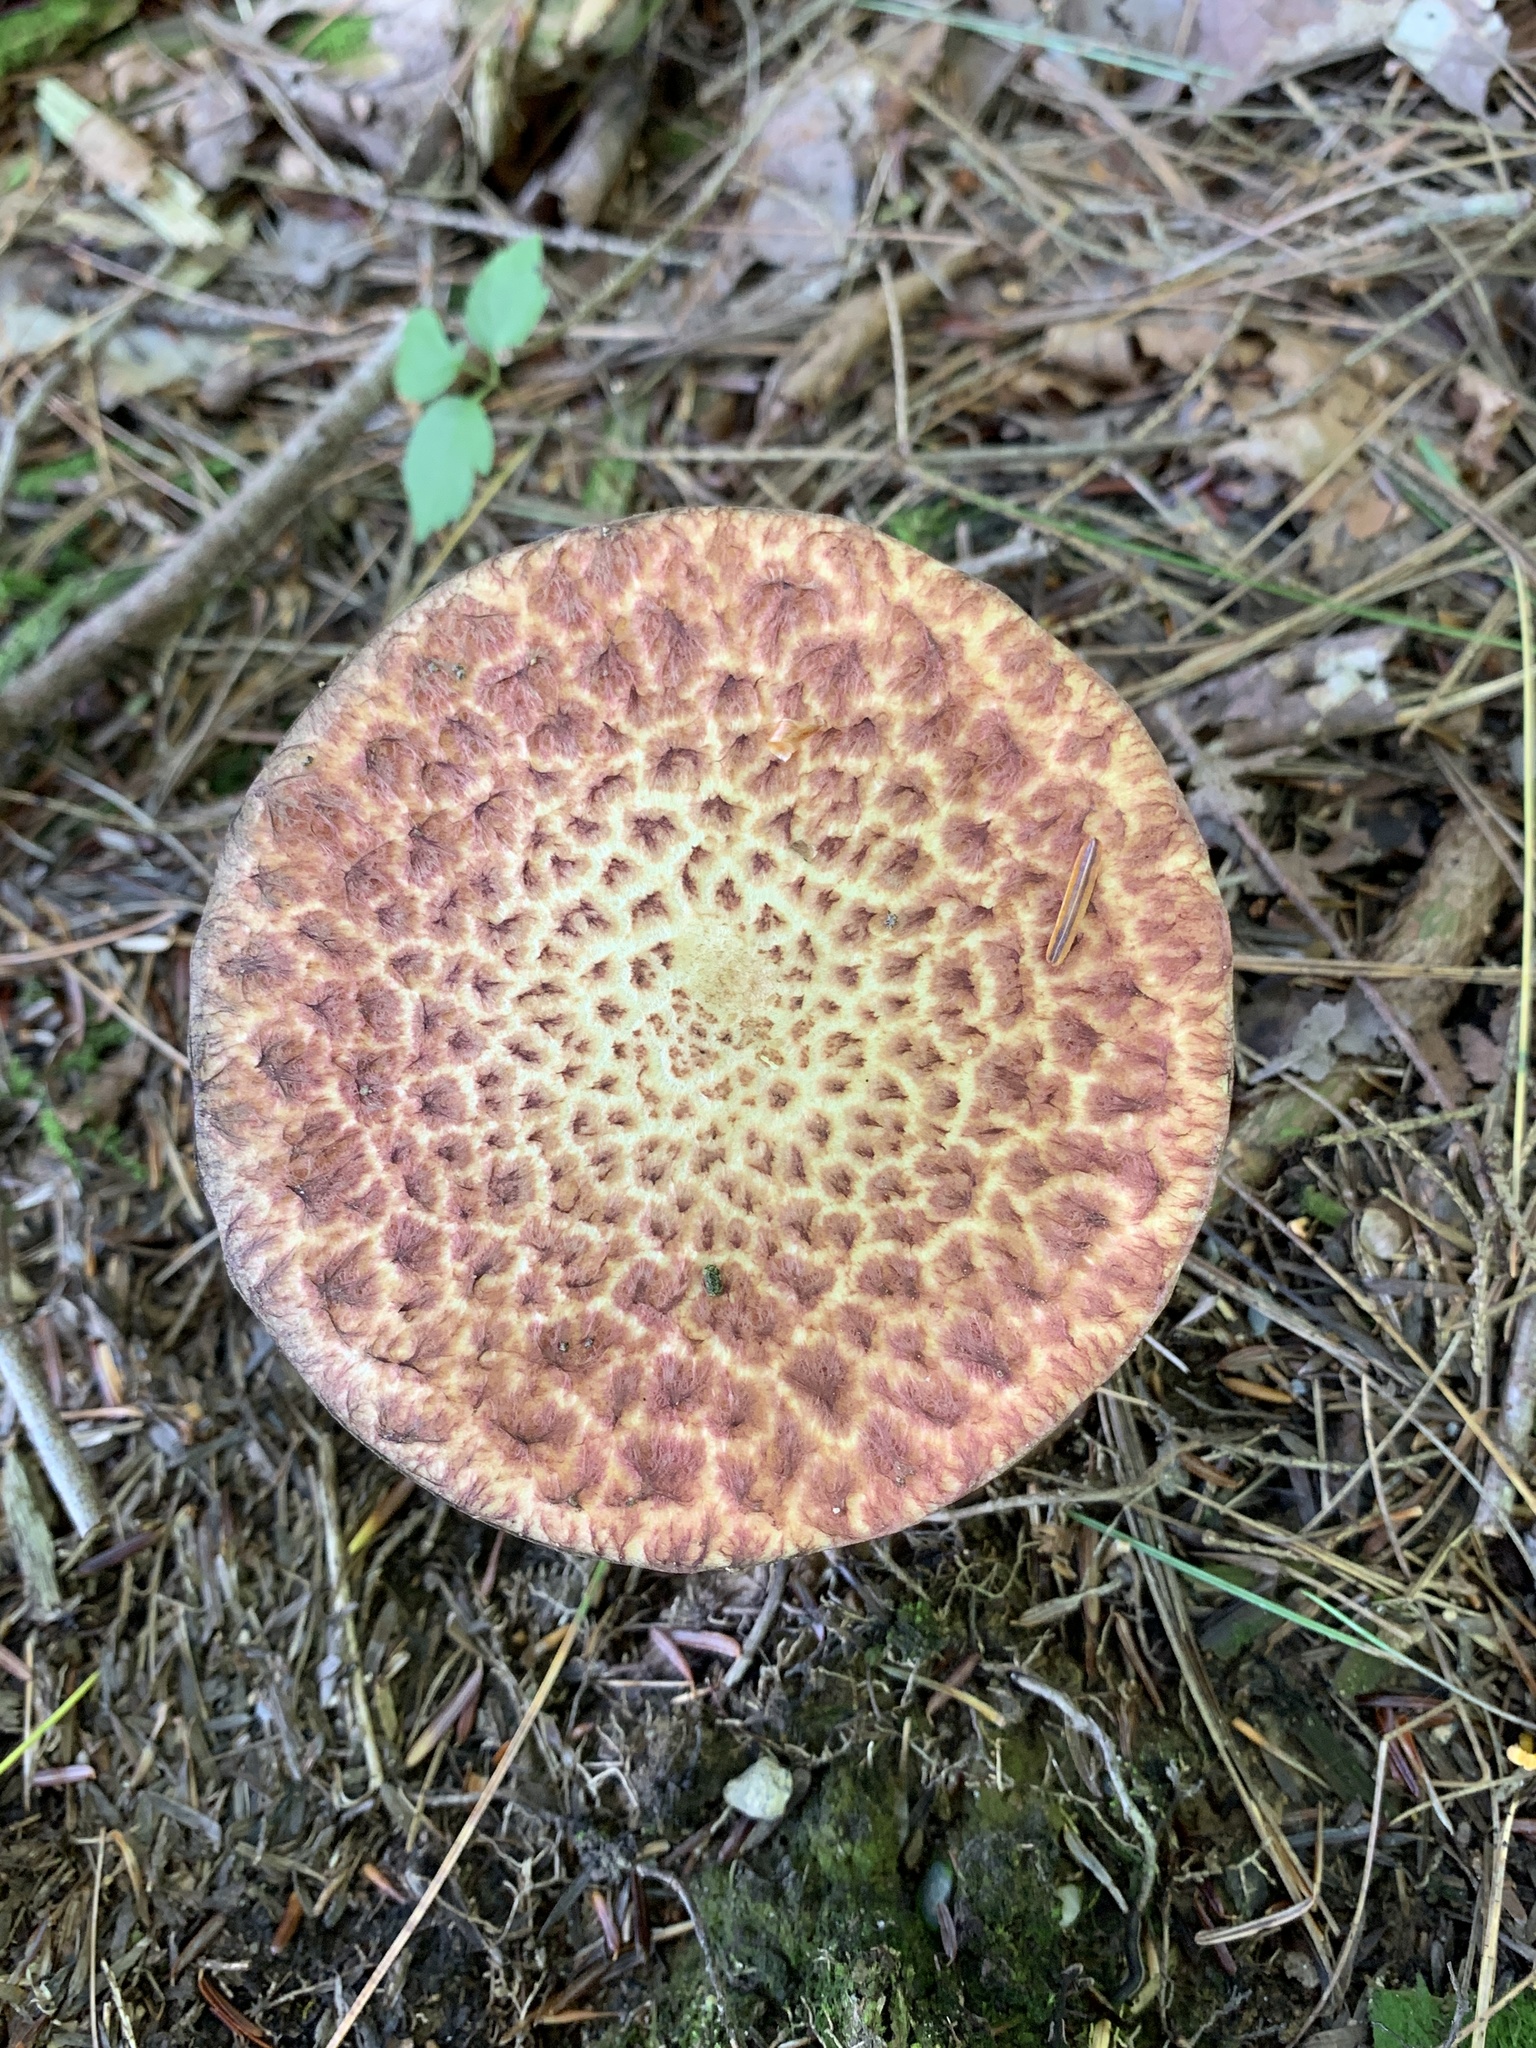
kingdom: Fungi
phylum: Basidiomycota
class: Agaricomycetes
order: Boletales
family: Suillaceae
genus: Suillus
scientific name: Suillus spraguei
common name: Painted suillus
